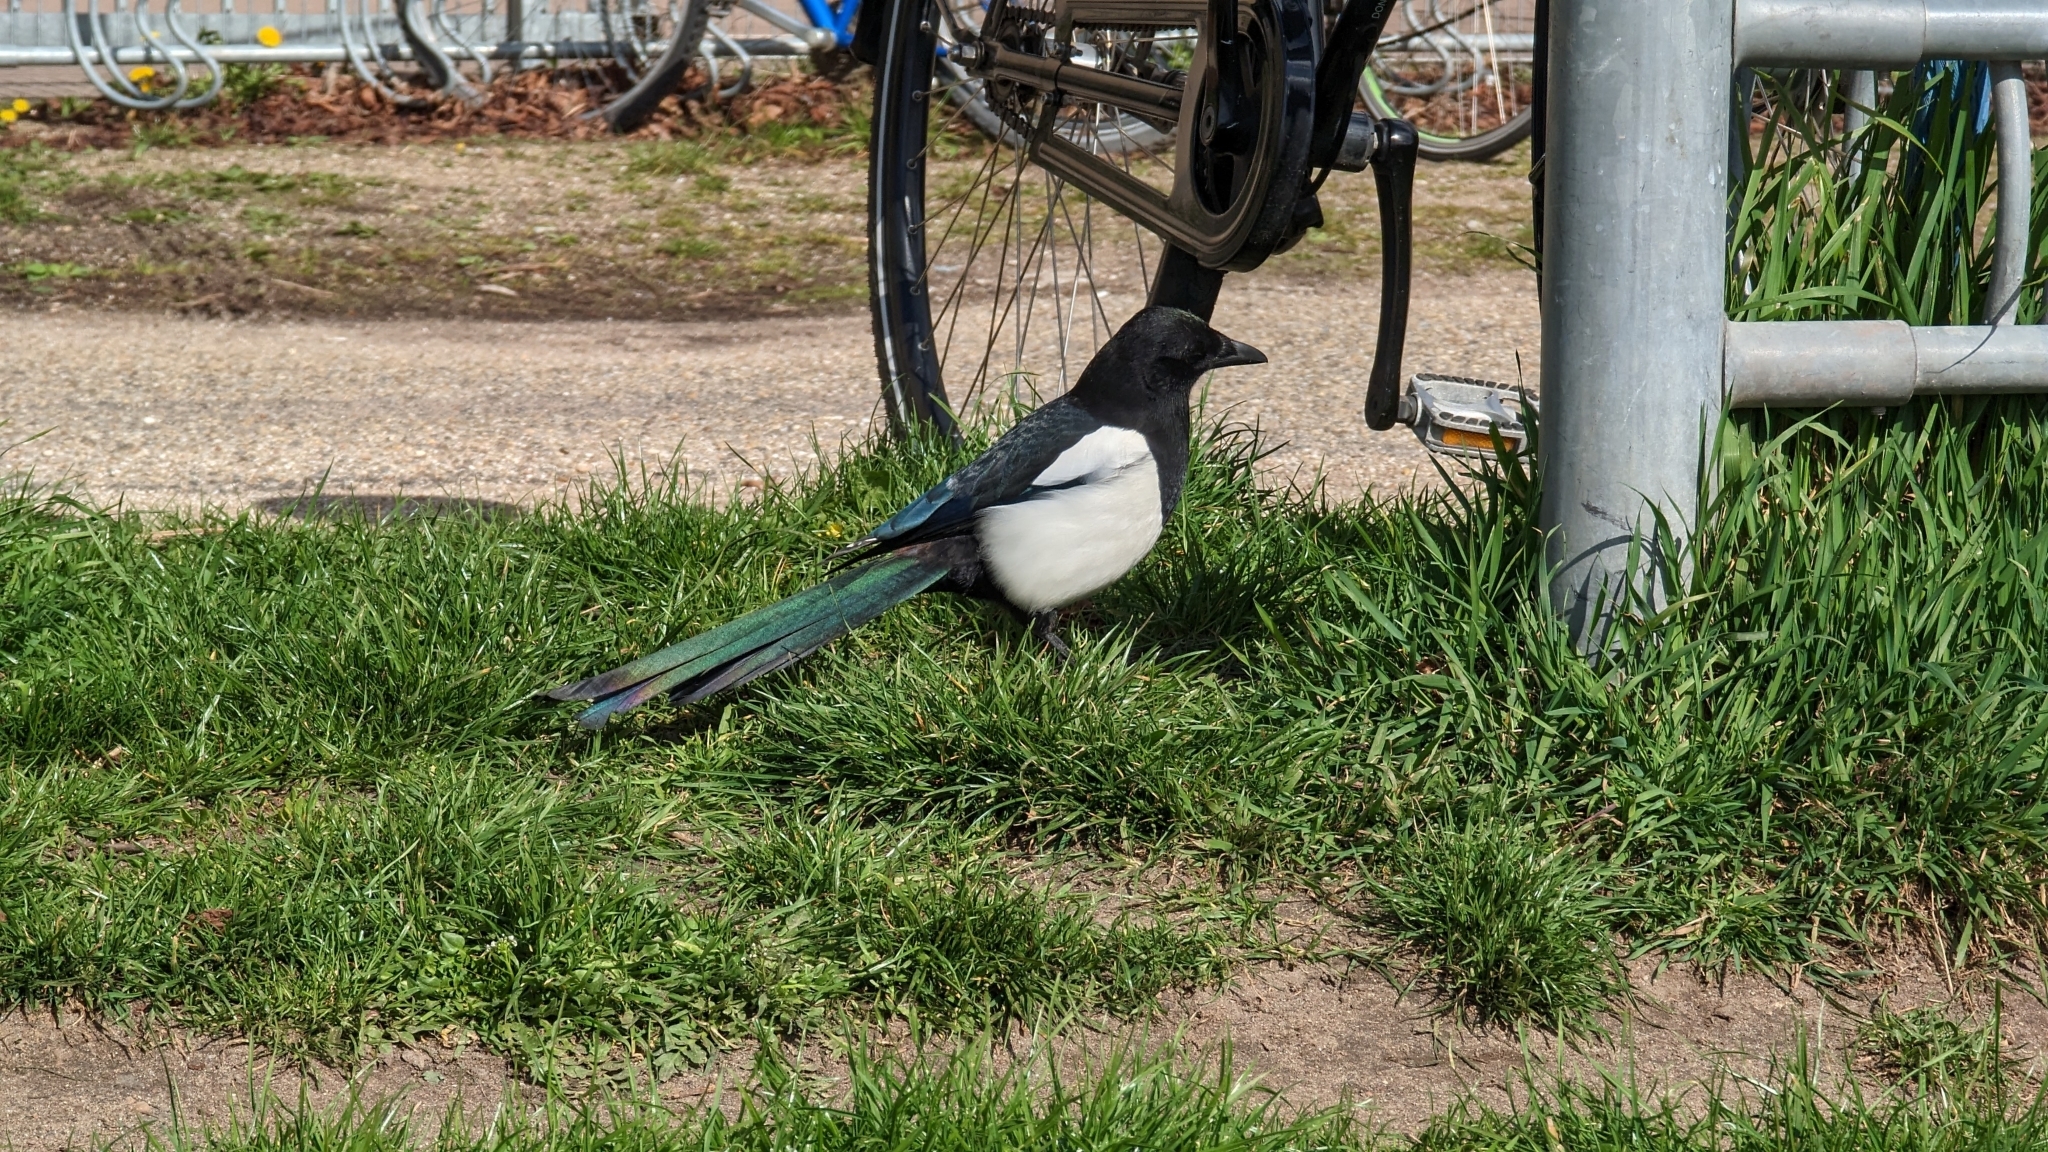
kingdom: Animalia
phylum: Chordata
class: Aves
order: Passeriformes
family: Corvidae
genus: Pica
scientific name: Pica pica
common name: Eurasian magpie
